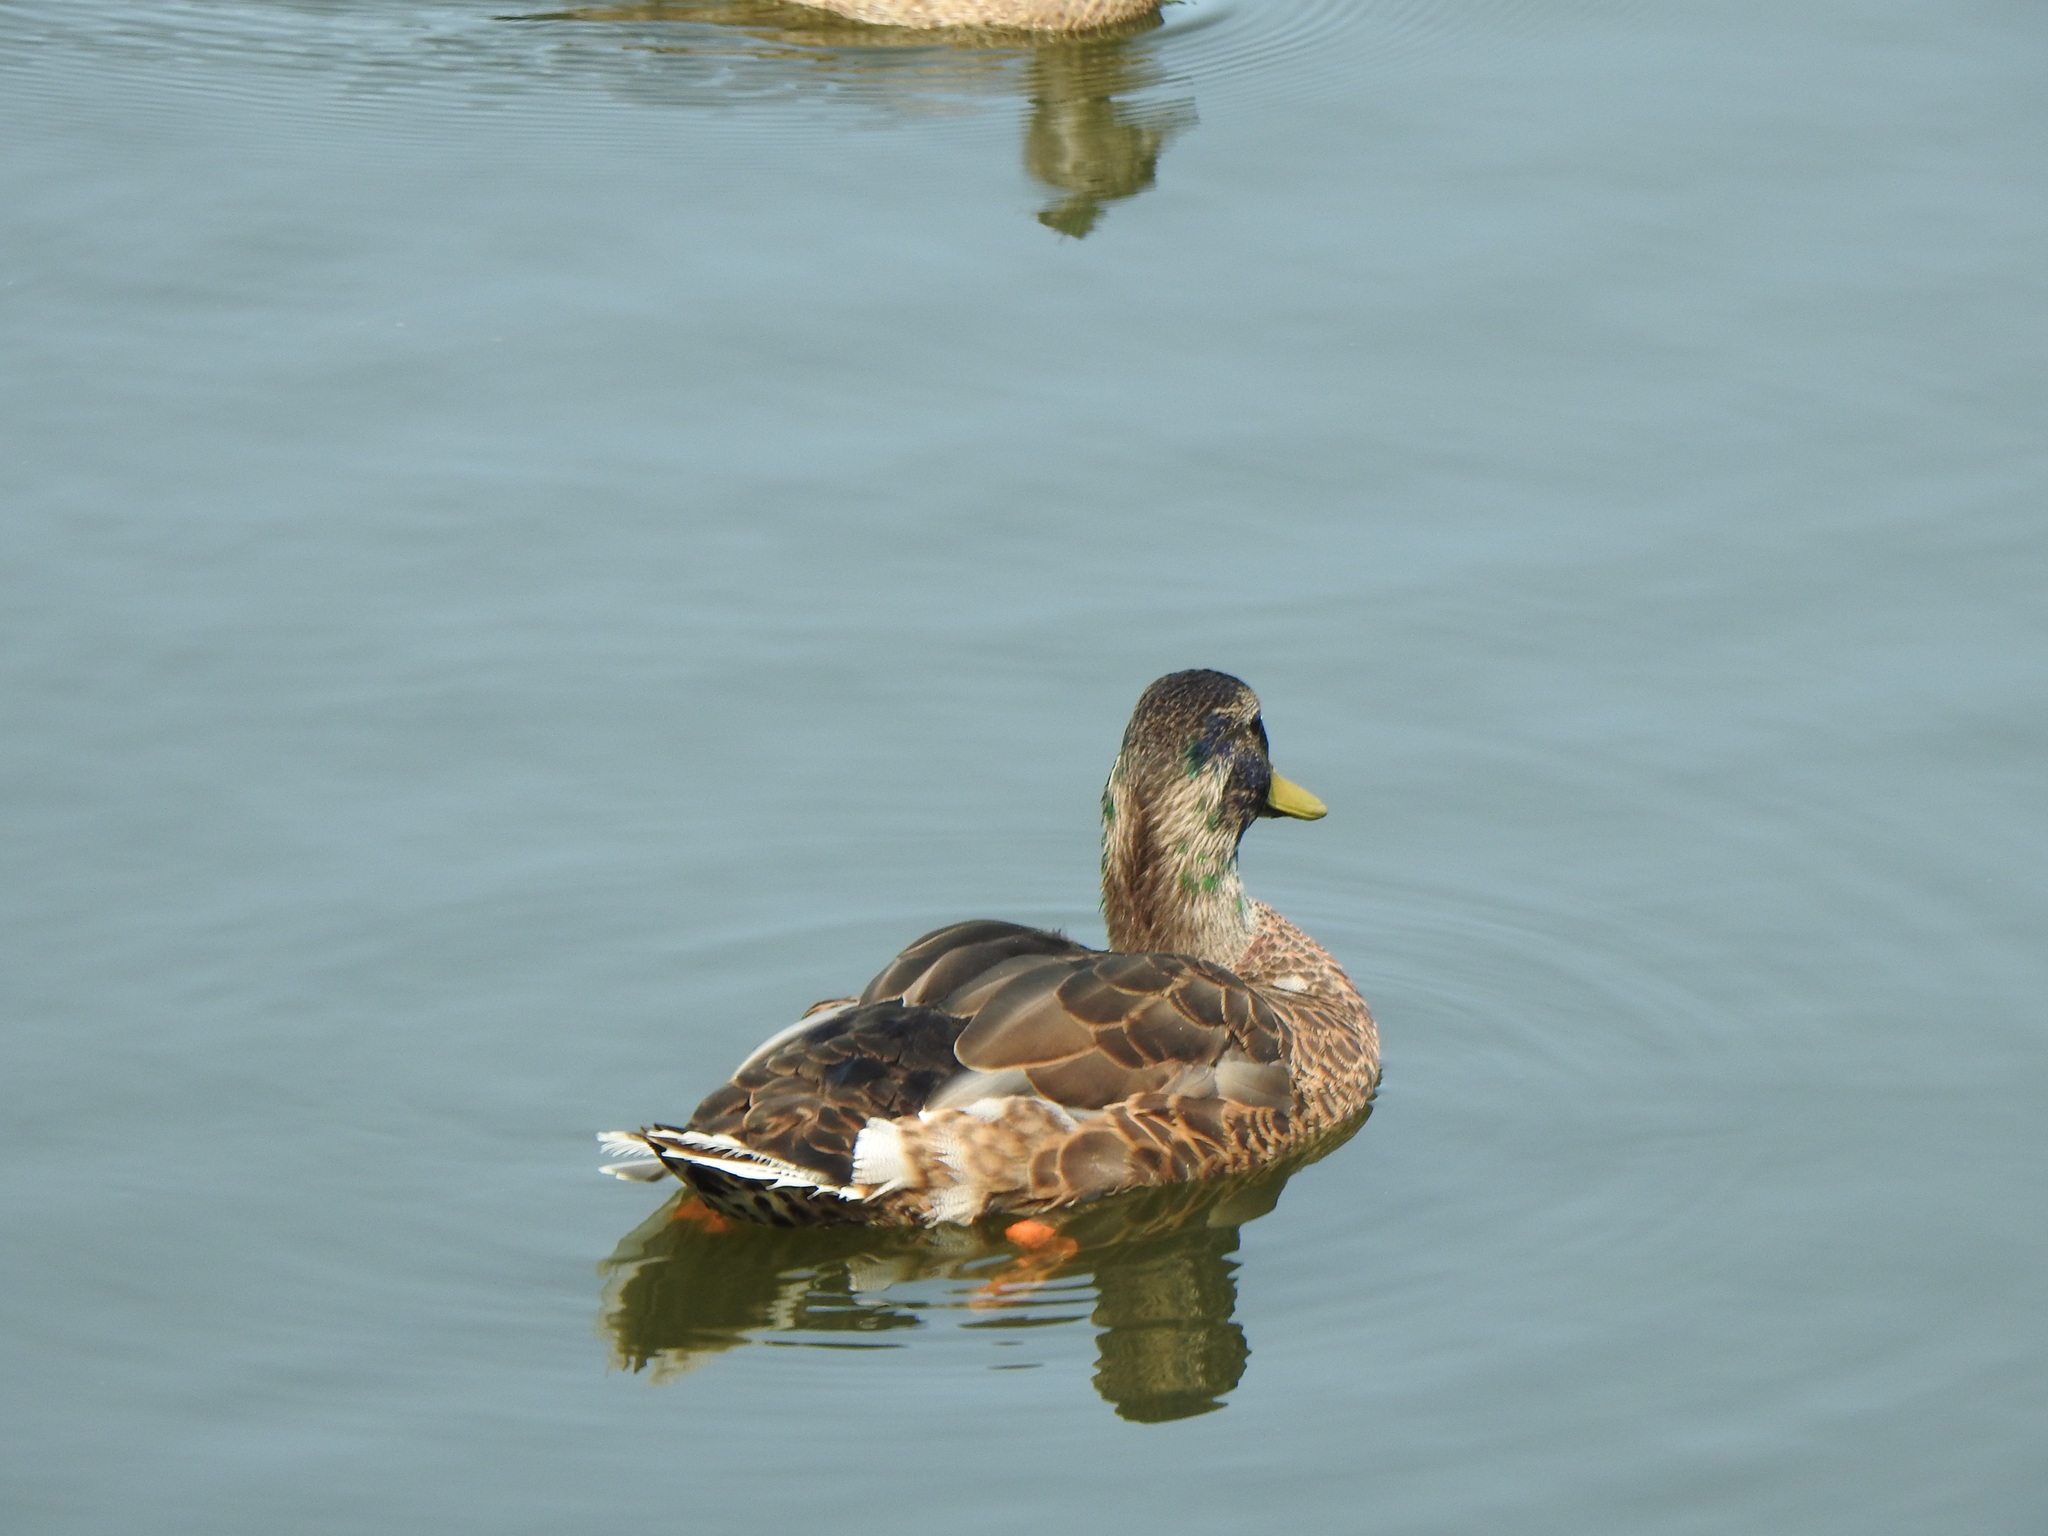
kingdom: Animalia
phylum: Chordata
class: Aves
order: Anseriformes
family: Anatidae
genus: Anas
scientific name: Anas platyrhynchos
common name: Mallard
